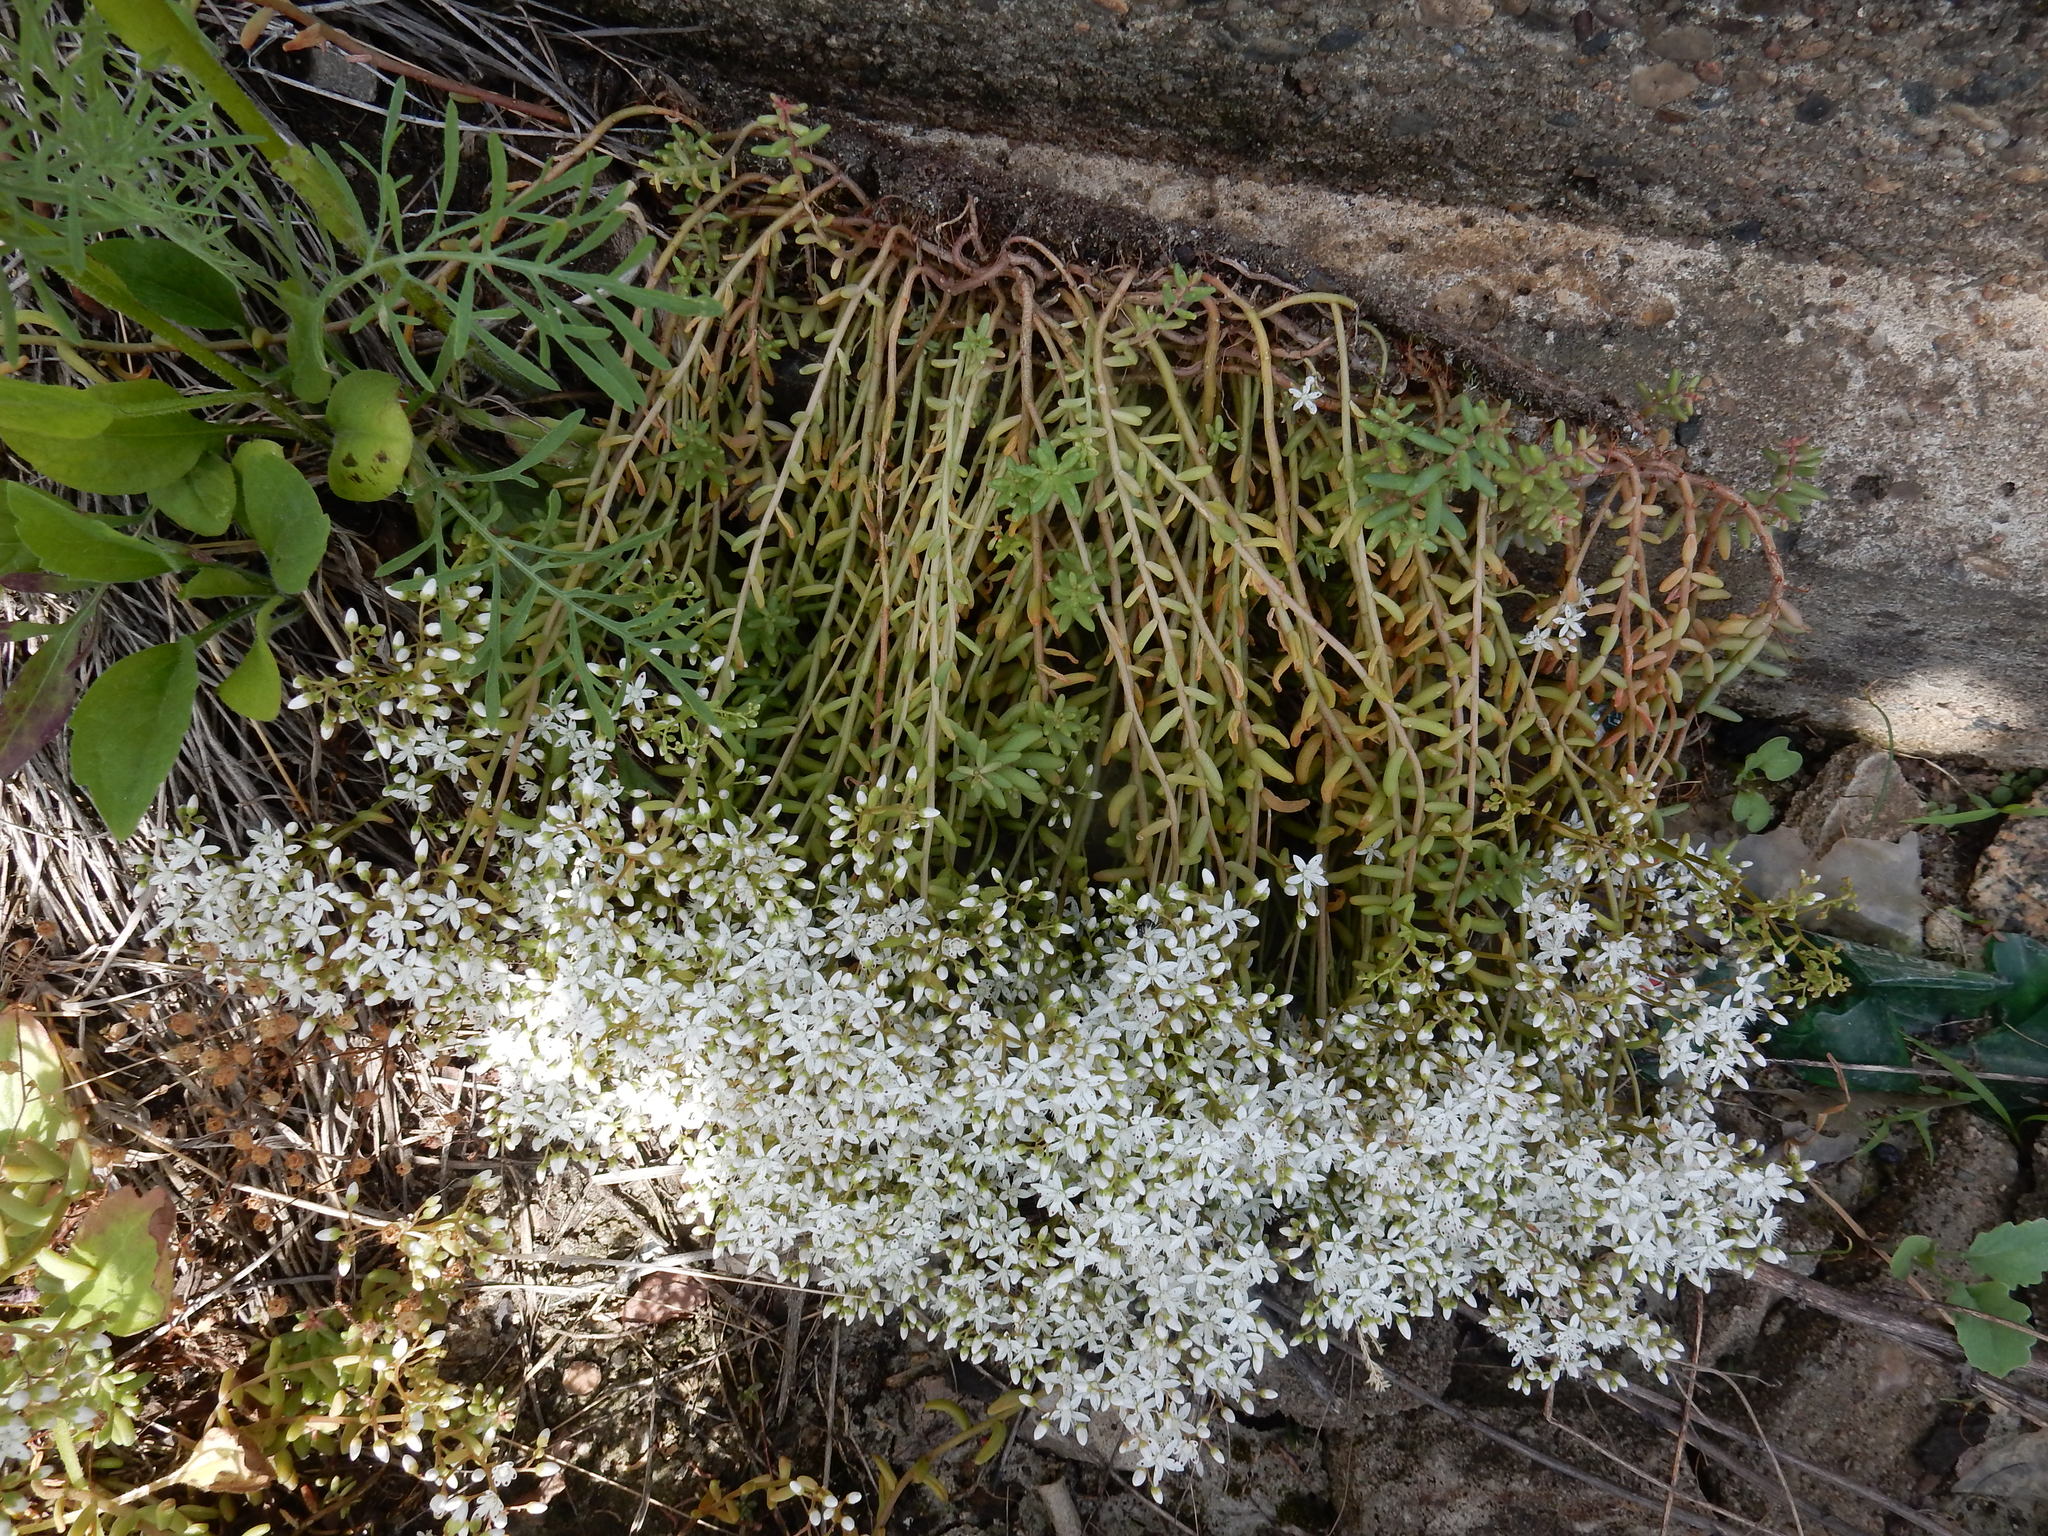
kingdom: Plantae
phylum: Tracheophyta
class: Magnoliopsida
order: Saxifragales
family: Crassulaceae
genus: Sedum
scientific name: Sedum album
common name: White stonecrop
